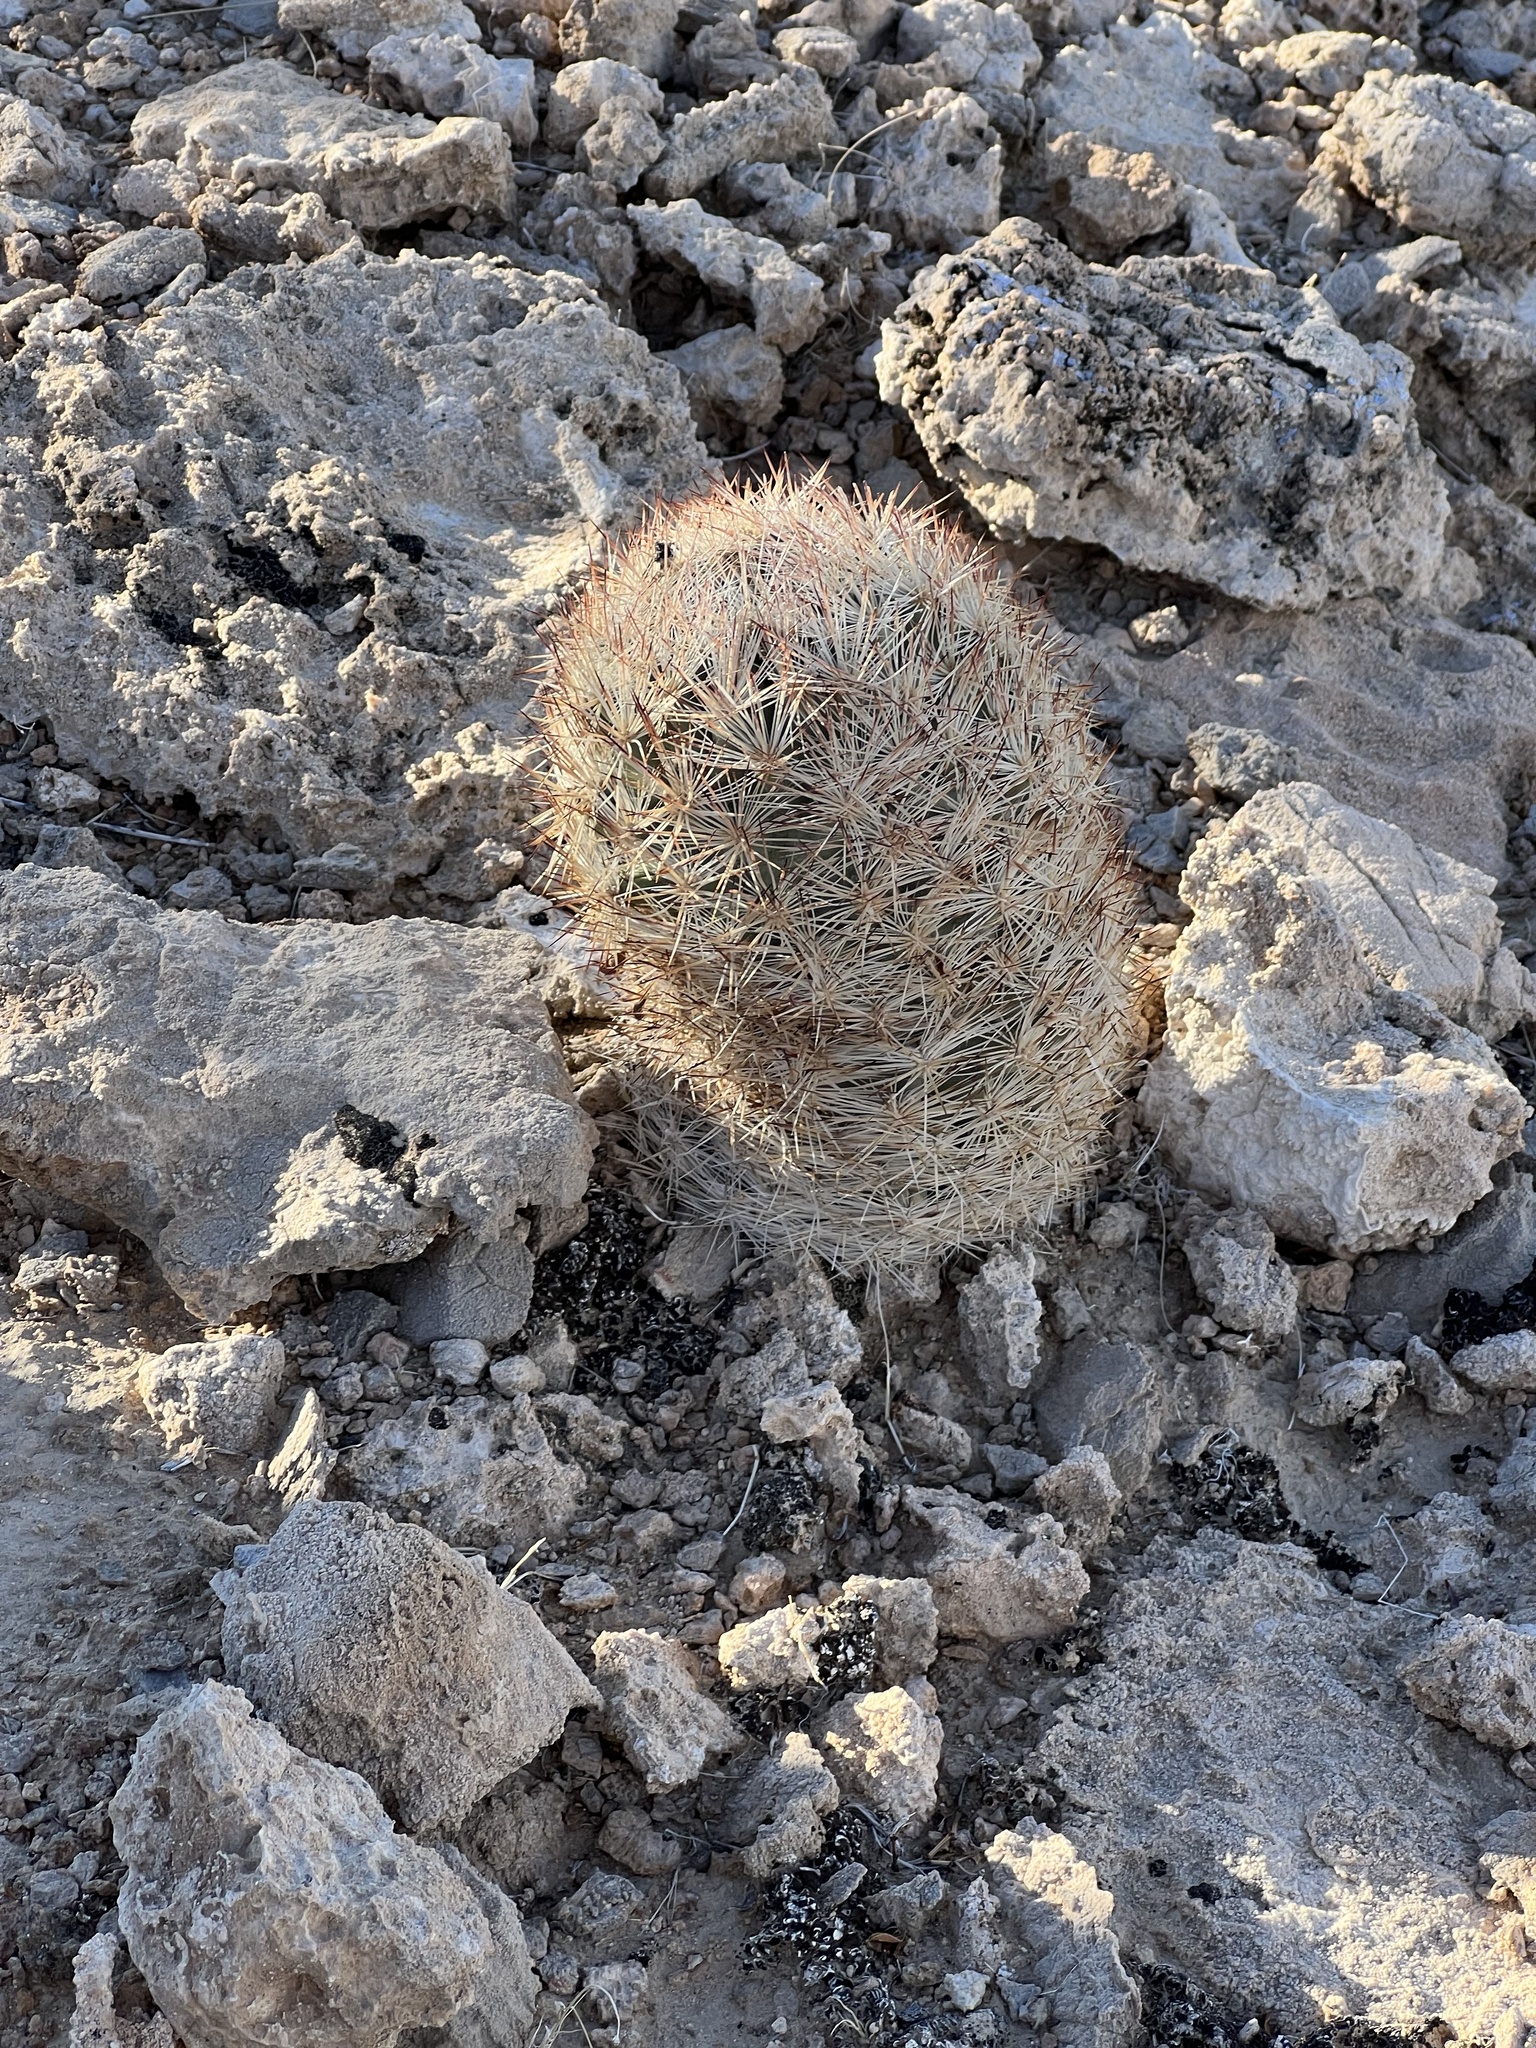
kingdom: Plantae
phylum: Tracheophyta
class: Magnoliopsida
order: Caryophyllales
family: Cactaceae
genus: Pelecyphora
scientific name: Pelecyphora dasyacantha
